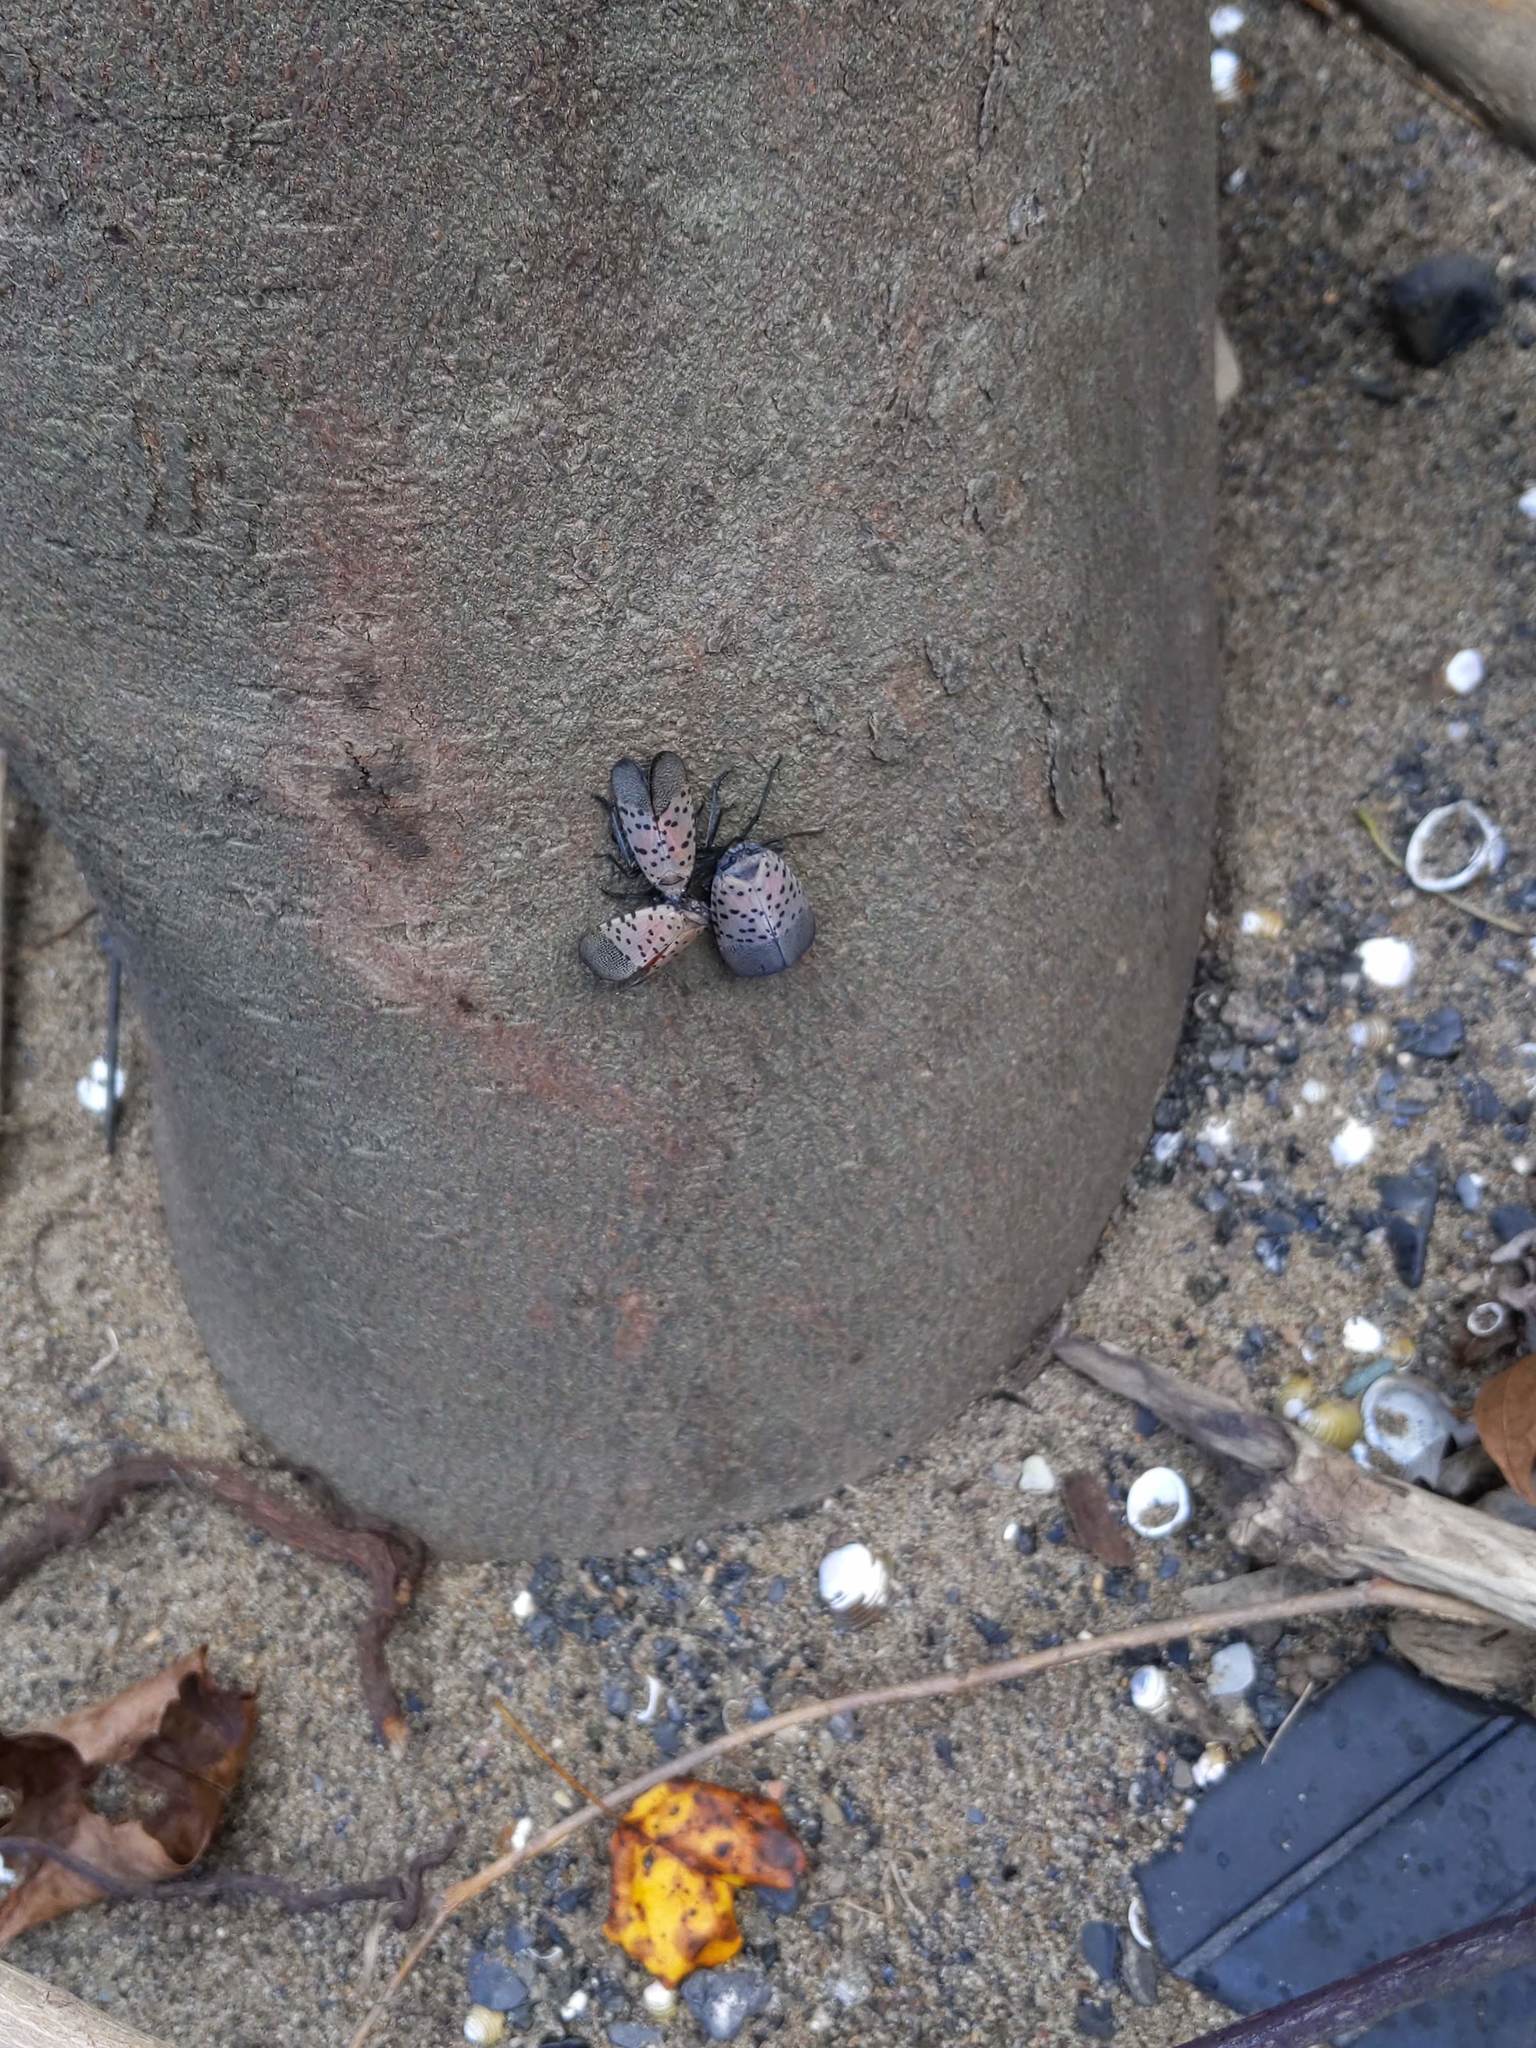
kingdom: Animalia
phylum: Arthropoda
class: Insecta
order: Hemiptera
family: Fulgoridae
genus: Lycorma
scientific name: Lycorma delicatula
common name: Spotted lanternfly
